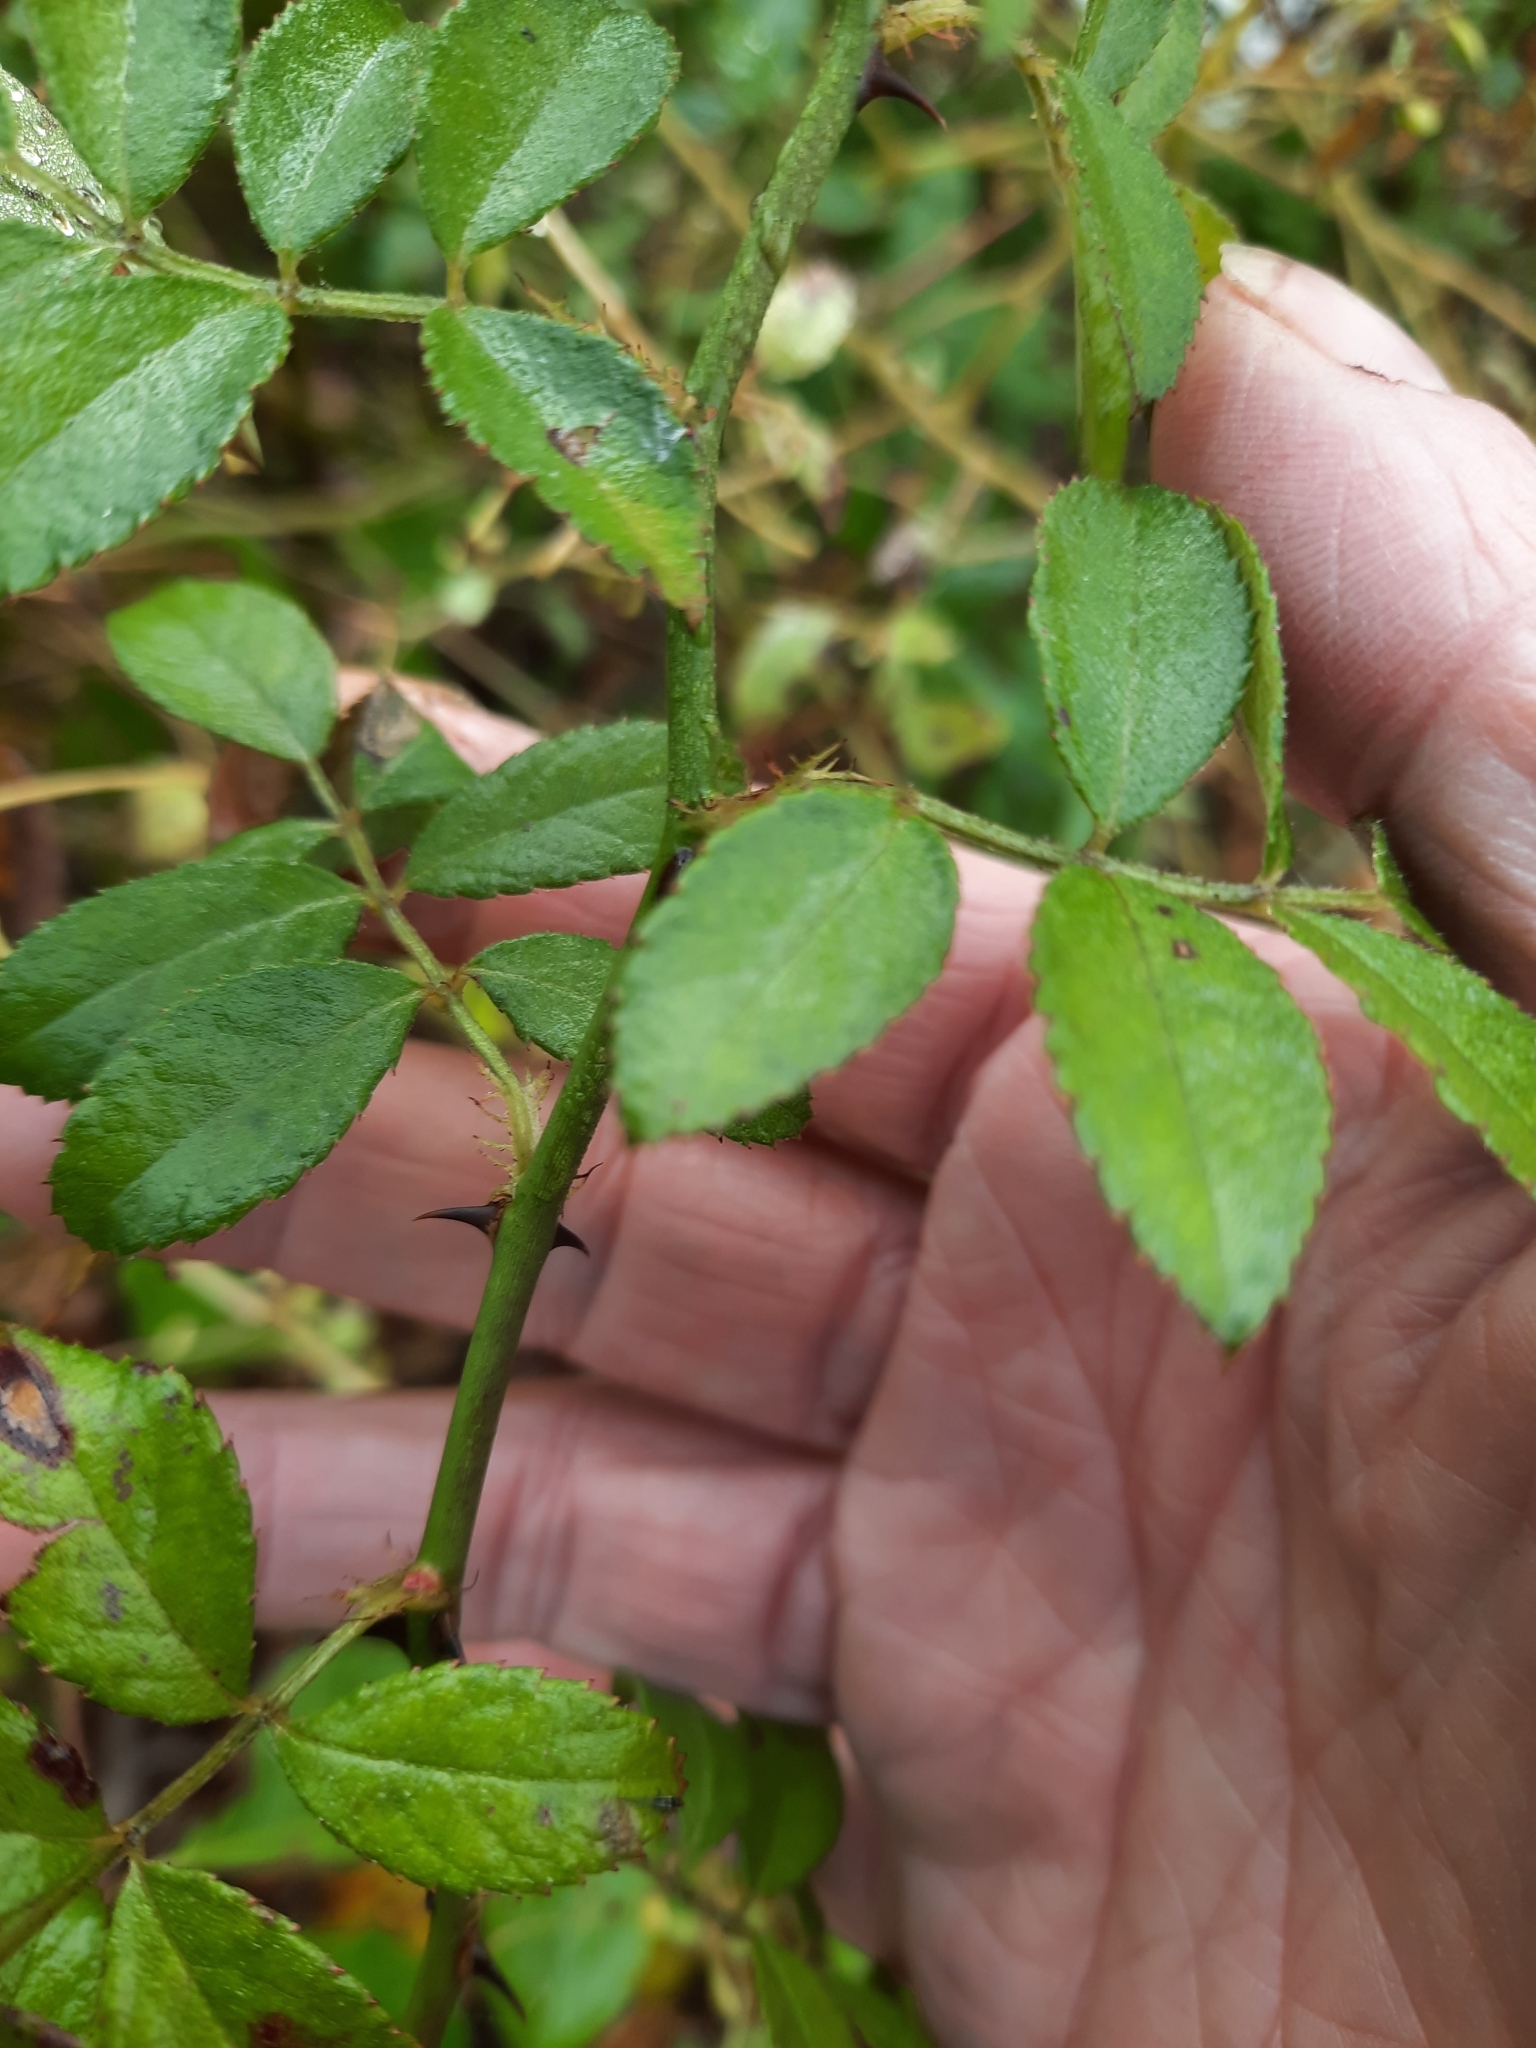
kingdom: Plantae
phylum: Tracheophyta
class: Magnoliopsida
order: Rosales
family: Rosaceae
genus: Rosa
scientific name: Rosa multiflora
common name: Multiflora rose
